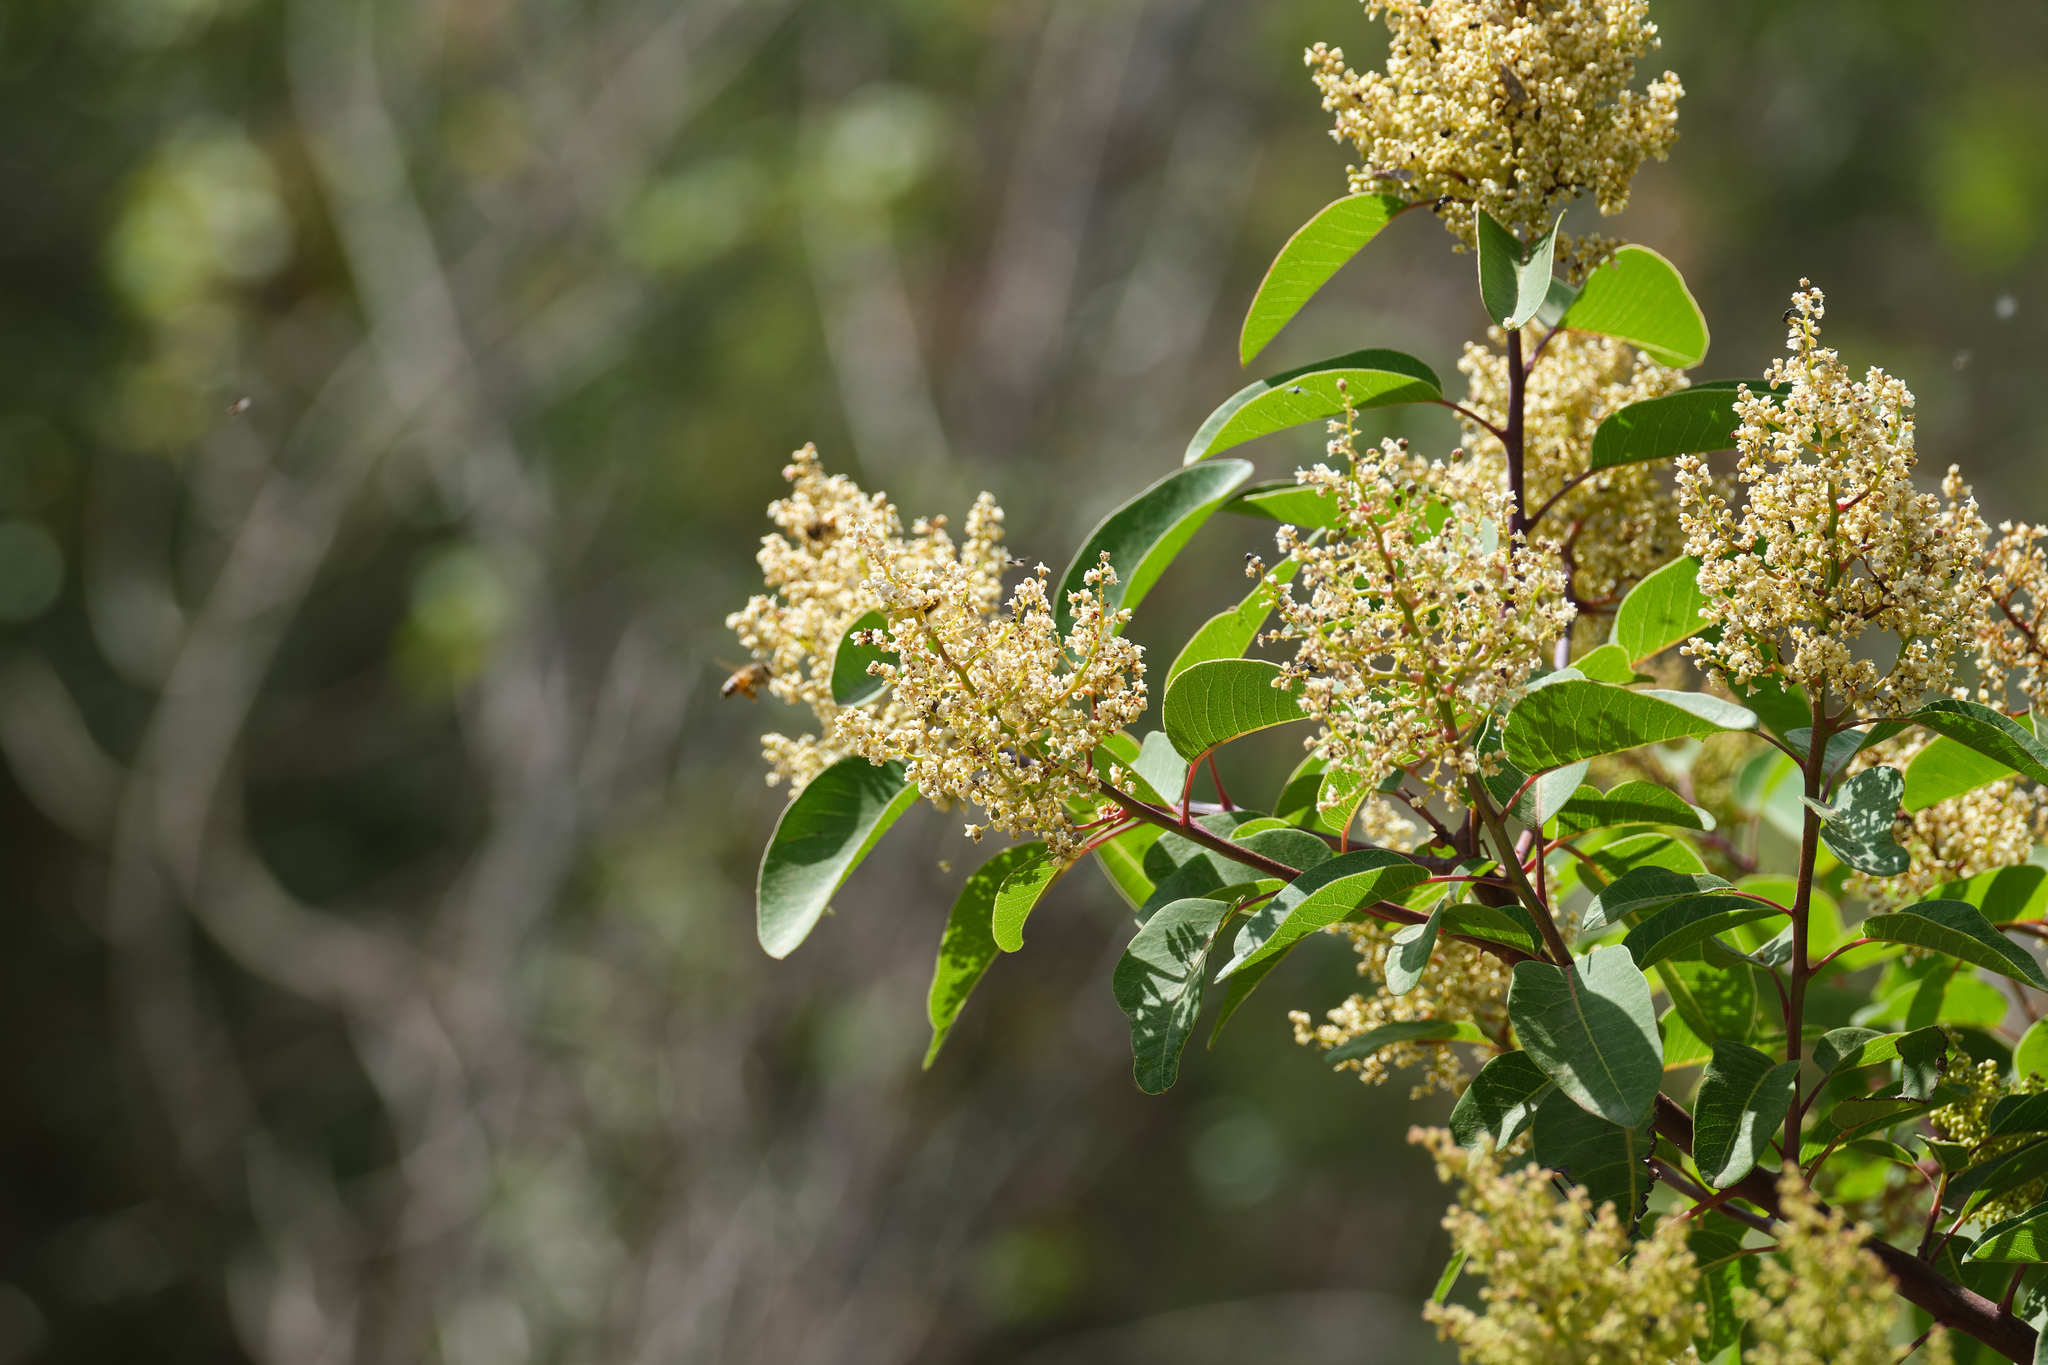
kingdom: Plantae
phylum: Tracheophyta
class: Magnoliopsida
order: Sapindales
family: Anacardiaceae
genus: Malosma
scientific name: Malosma laurina
